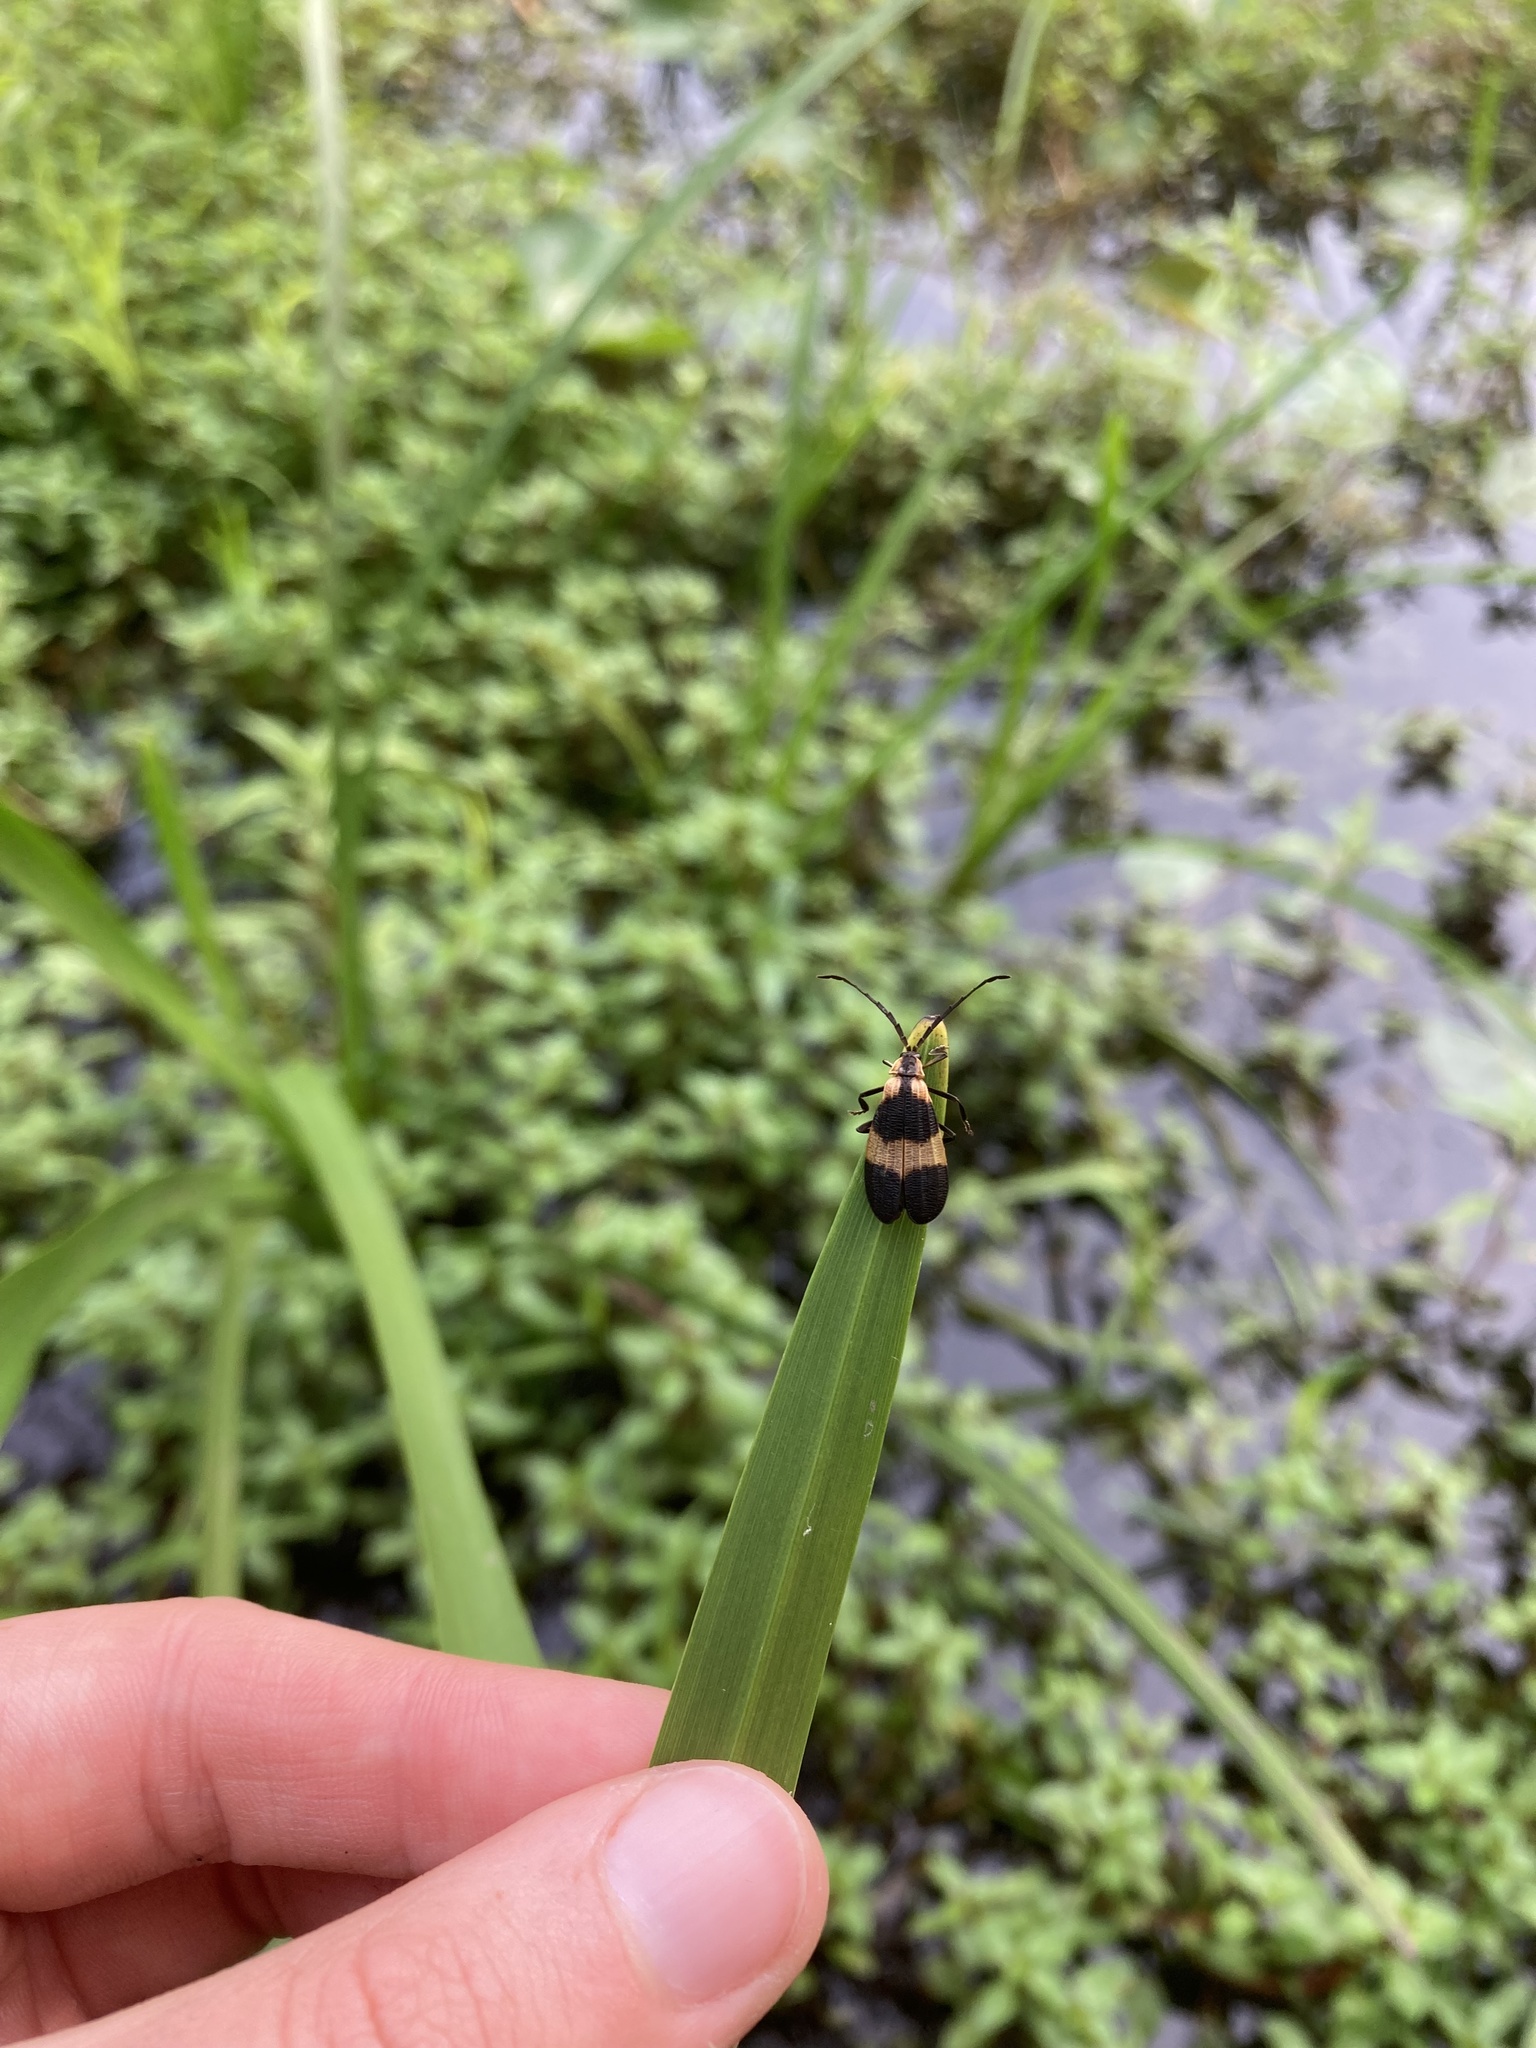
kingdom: Animalia
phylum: Arthropoda
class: Insecta
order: Coleoptera
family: Lycidae
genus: Calopteron
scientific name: Calopteron reticulatum
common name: Banded net-winged beetle
